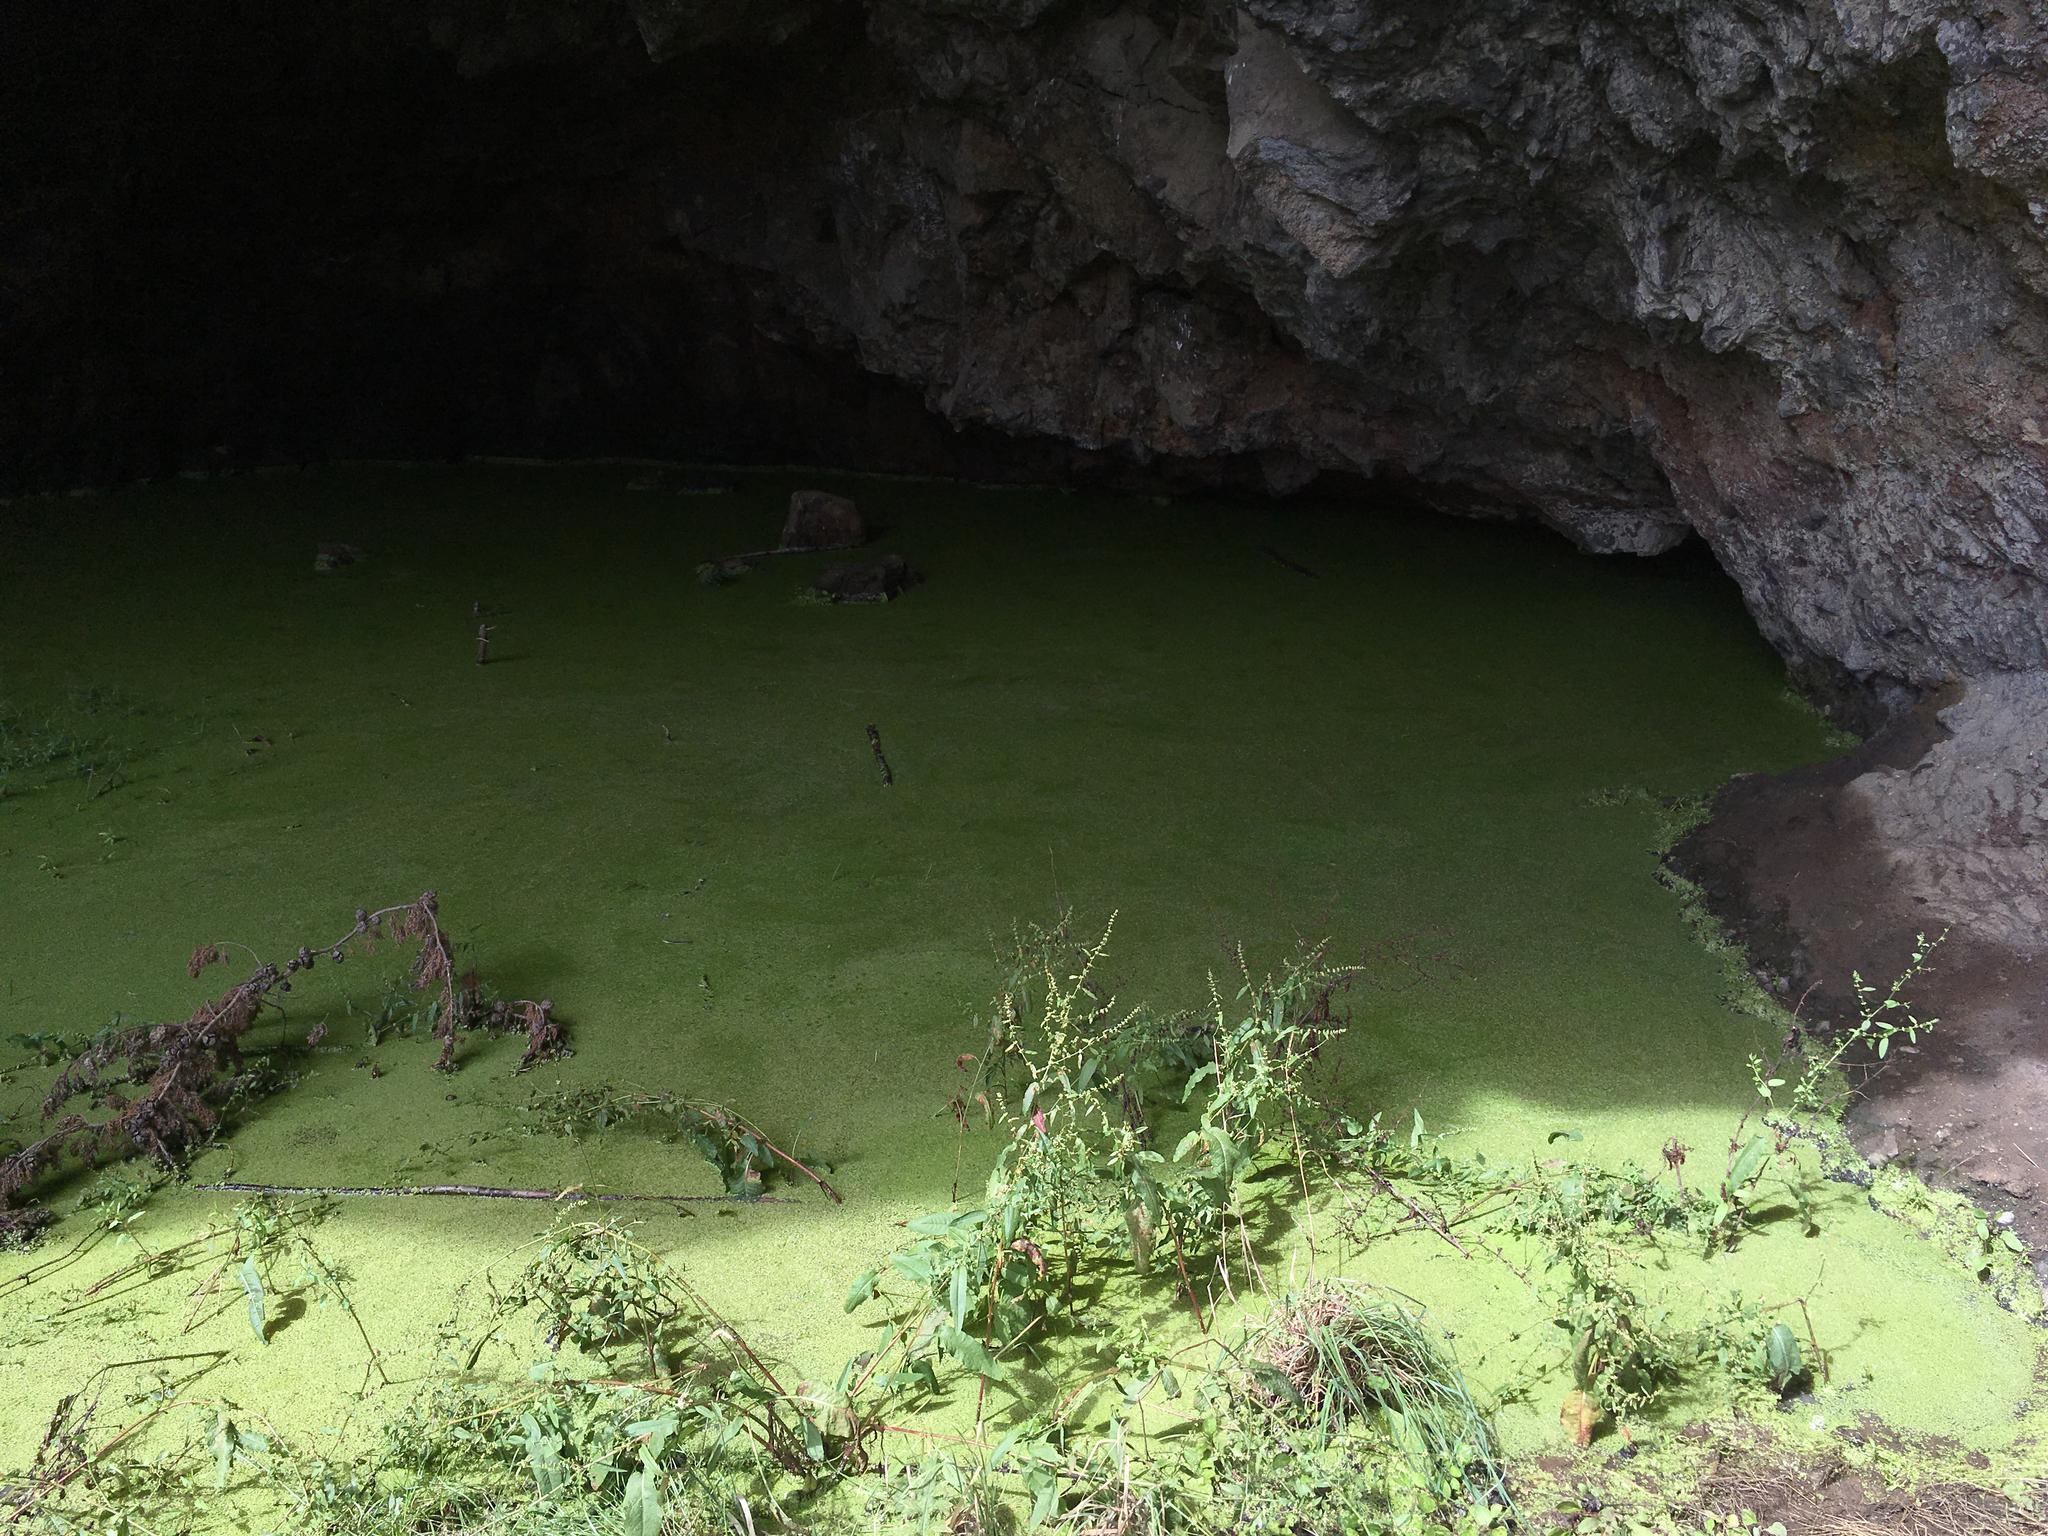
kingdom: Plantae
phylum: Tracheophyta
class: Liliopsida
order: Alismatales
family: Araceae
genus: Lemna
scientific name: Lemna disperma
